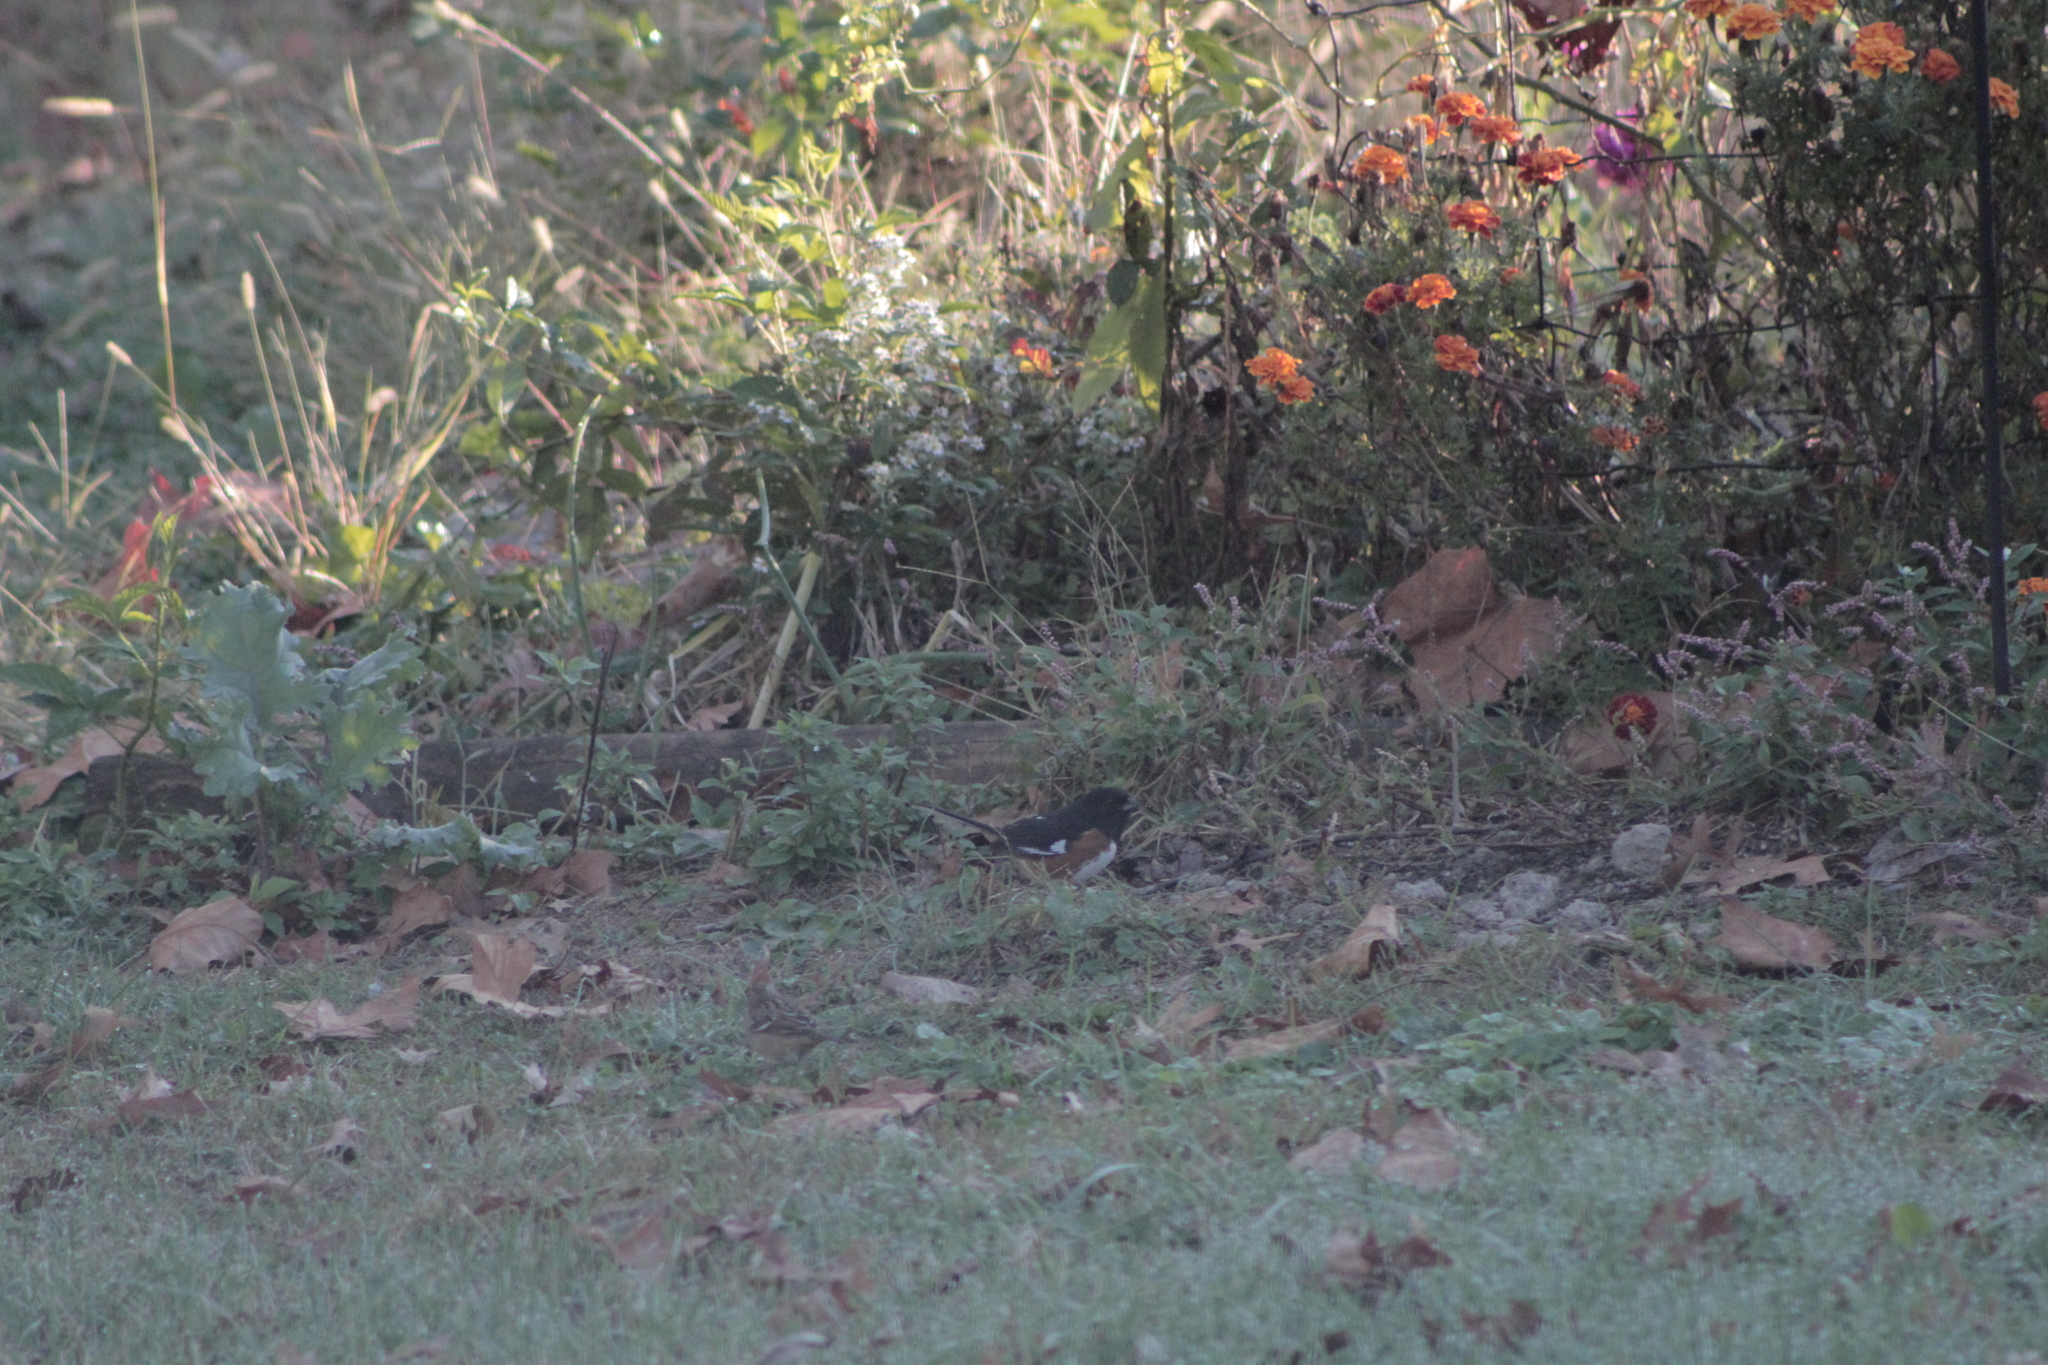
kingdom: Animalia
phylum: Chordata
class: Aves
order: Passeriformes
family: Passerellidae
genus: Pipilo
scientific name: Pipilo erythrophthalmus
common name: Eastern towhee
